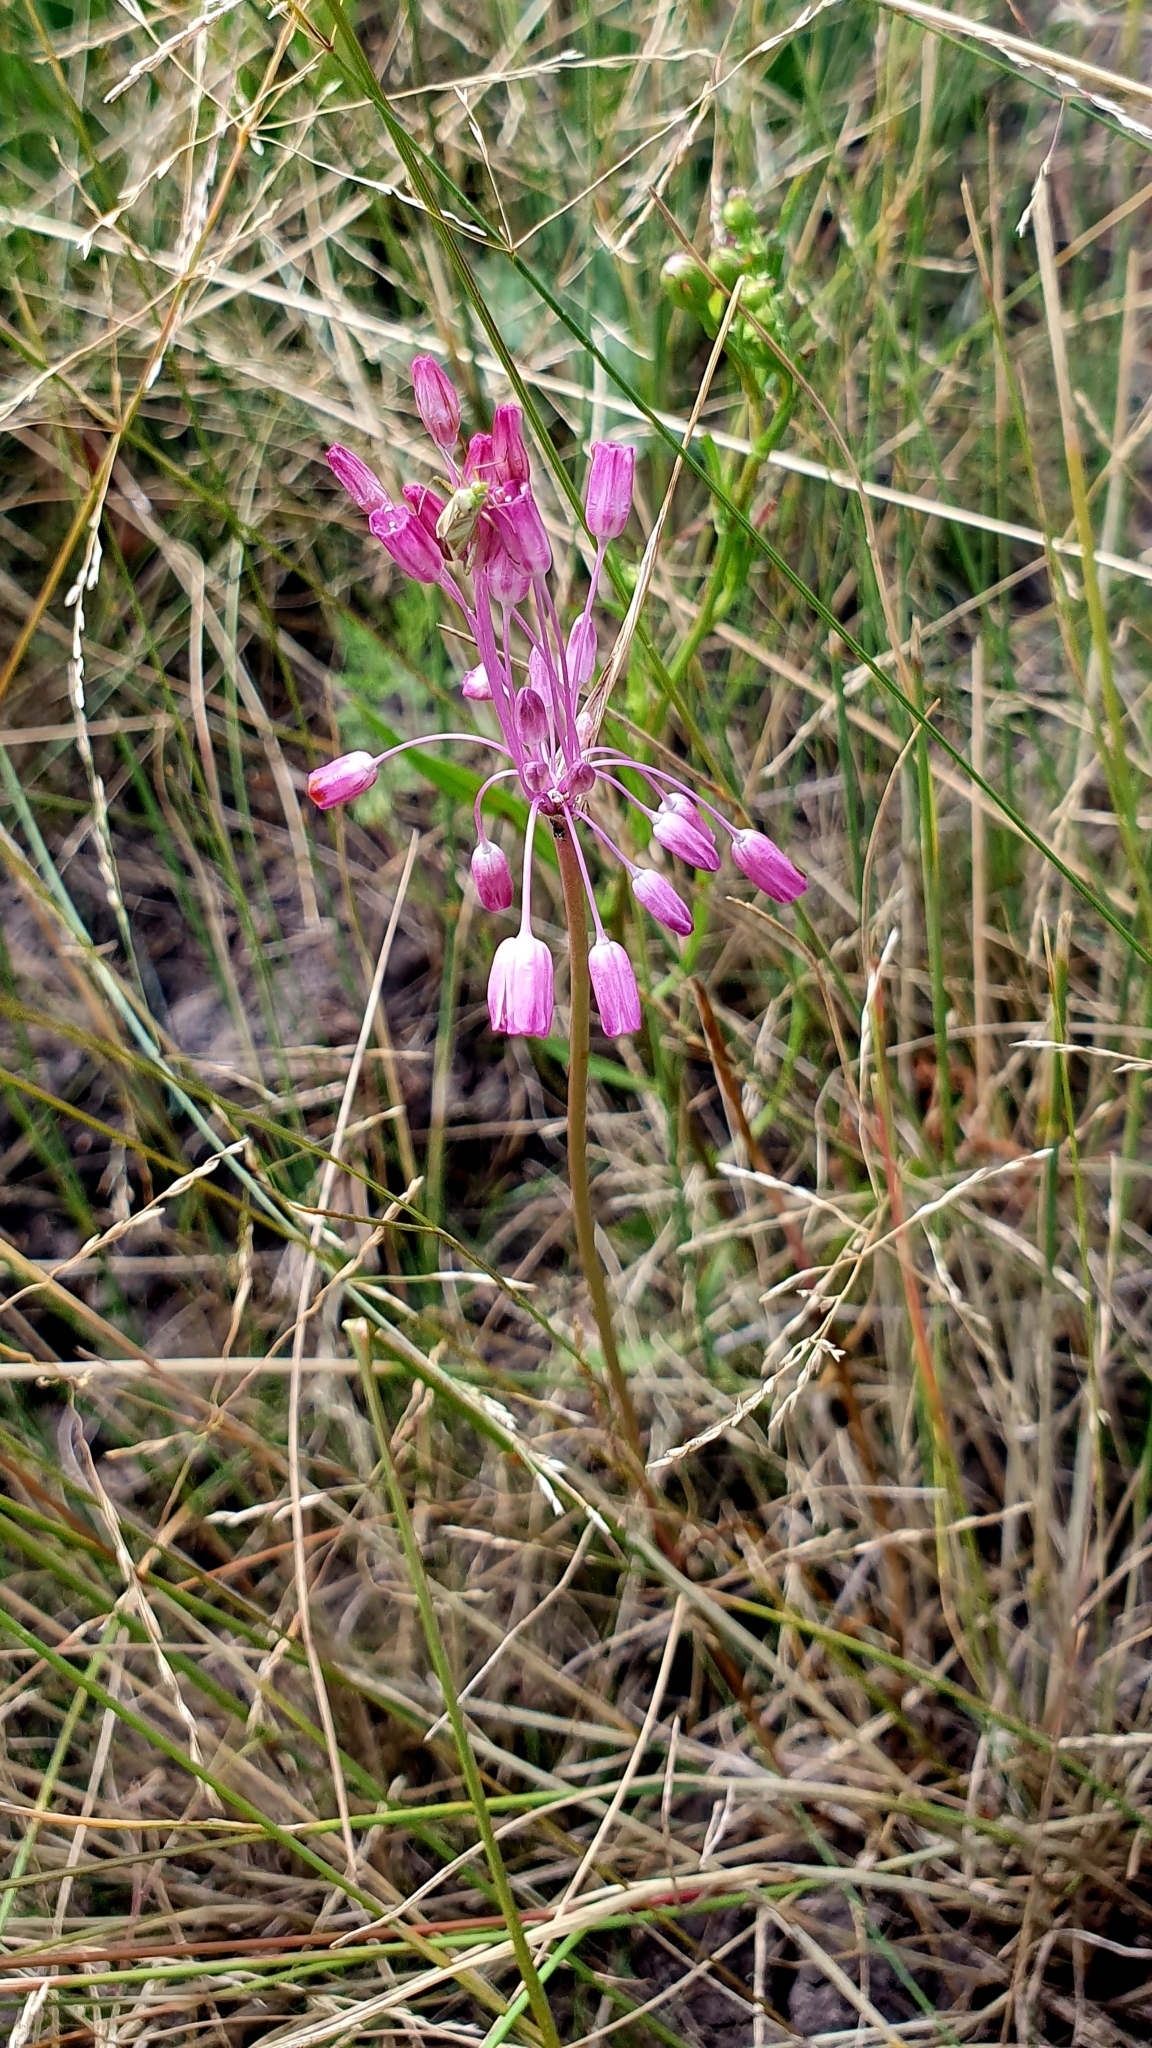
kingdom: Plantae
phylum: Tracheophyta
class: Liliopsida
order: Asparagales
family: Amaryllidaceae
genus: Allium
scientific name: Allium praescissum
